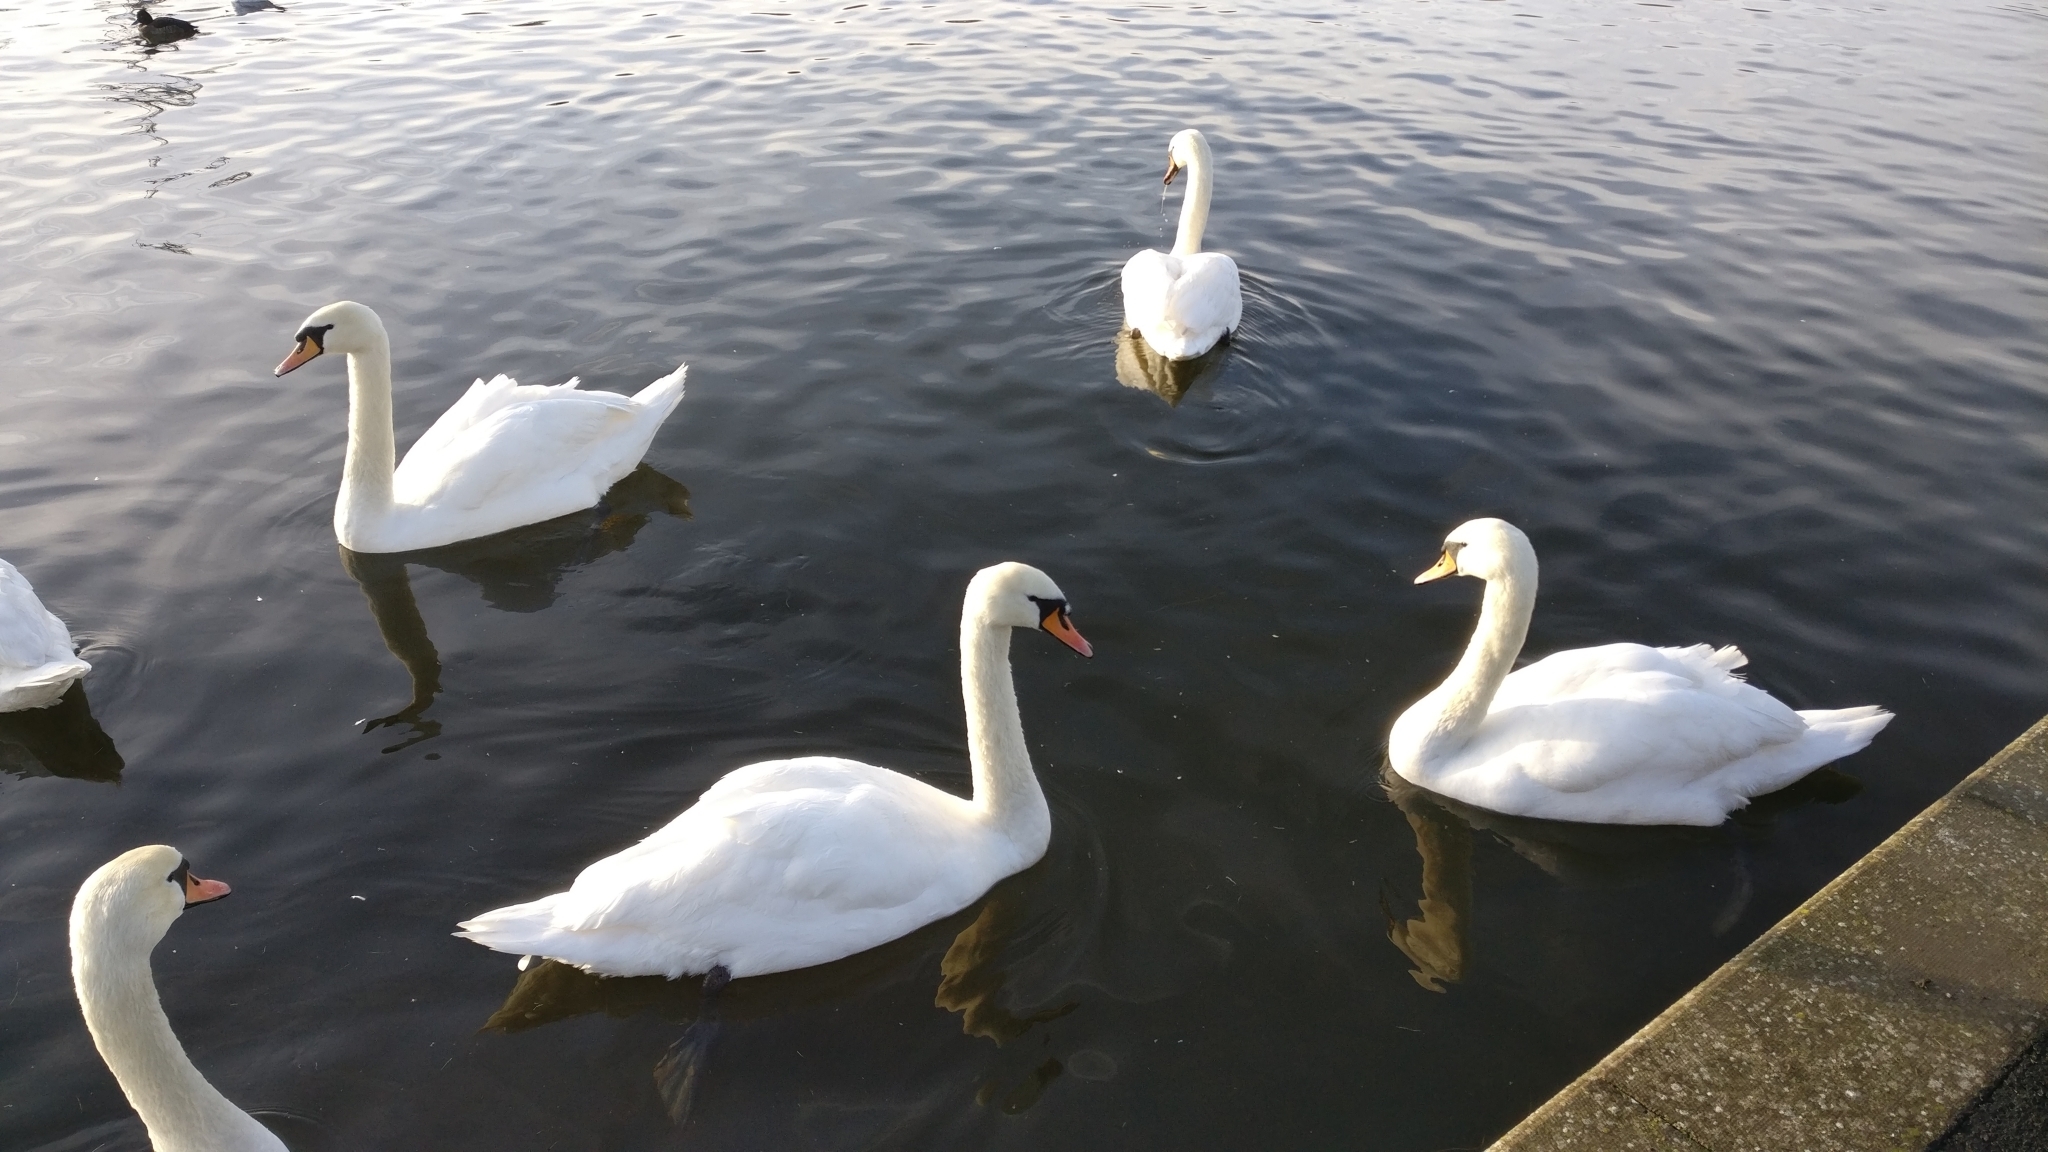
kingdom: Animalia
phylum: Chordata
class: Aves
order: Anseriformes
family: Anatidae
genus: Cygnus
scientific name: Cygnus olor
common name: Mute swan
